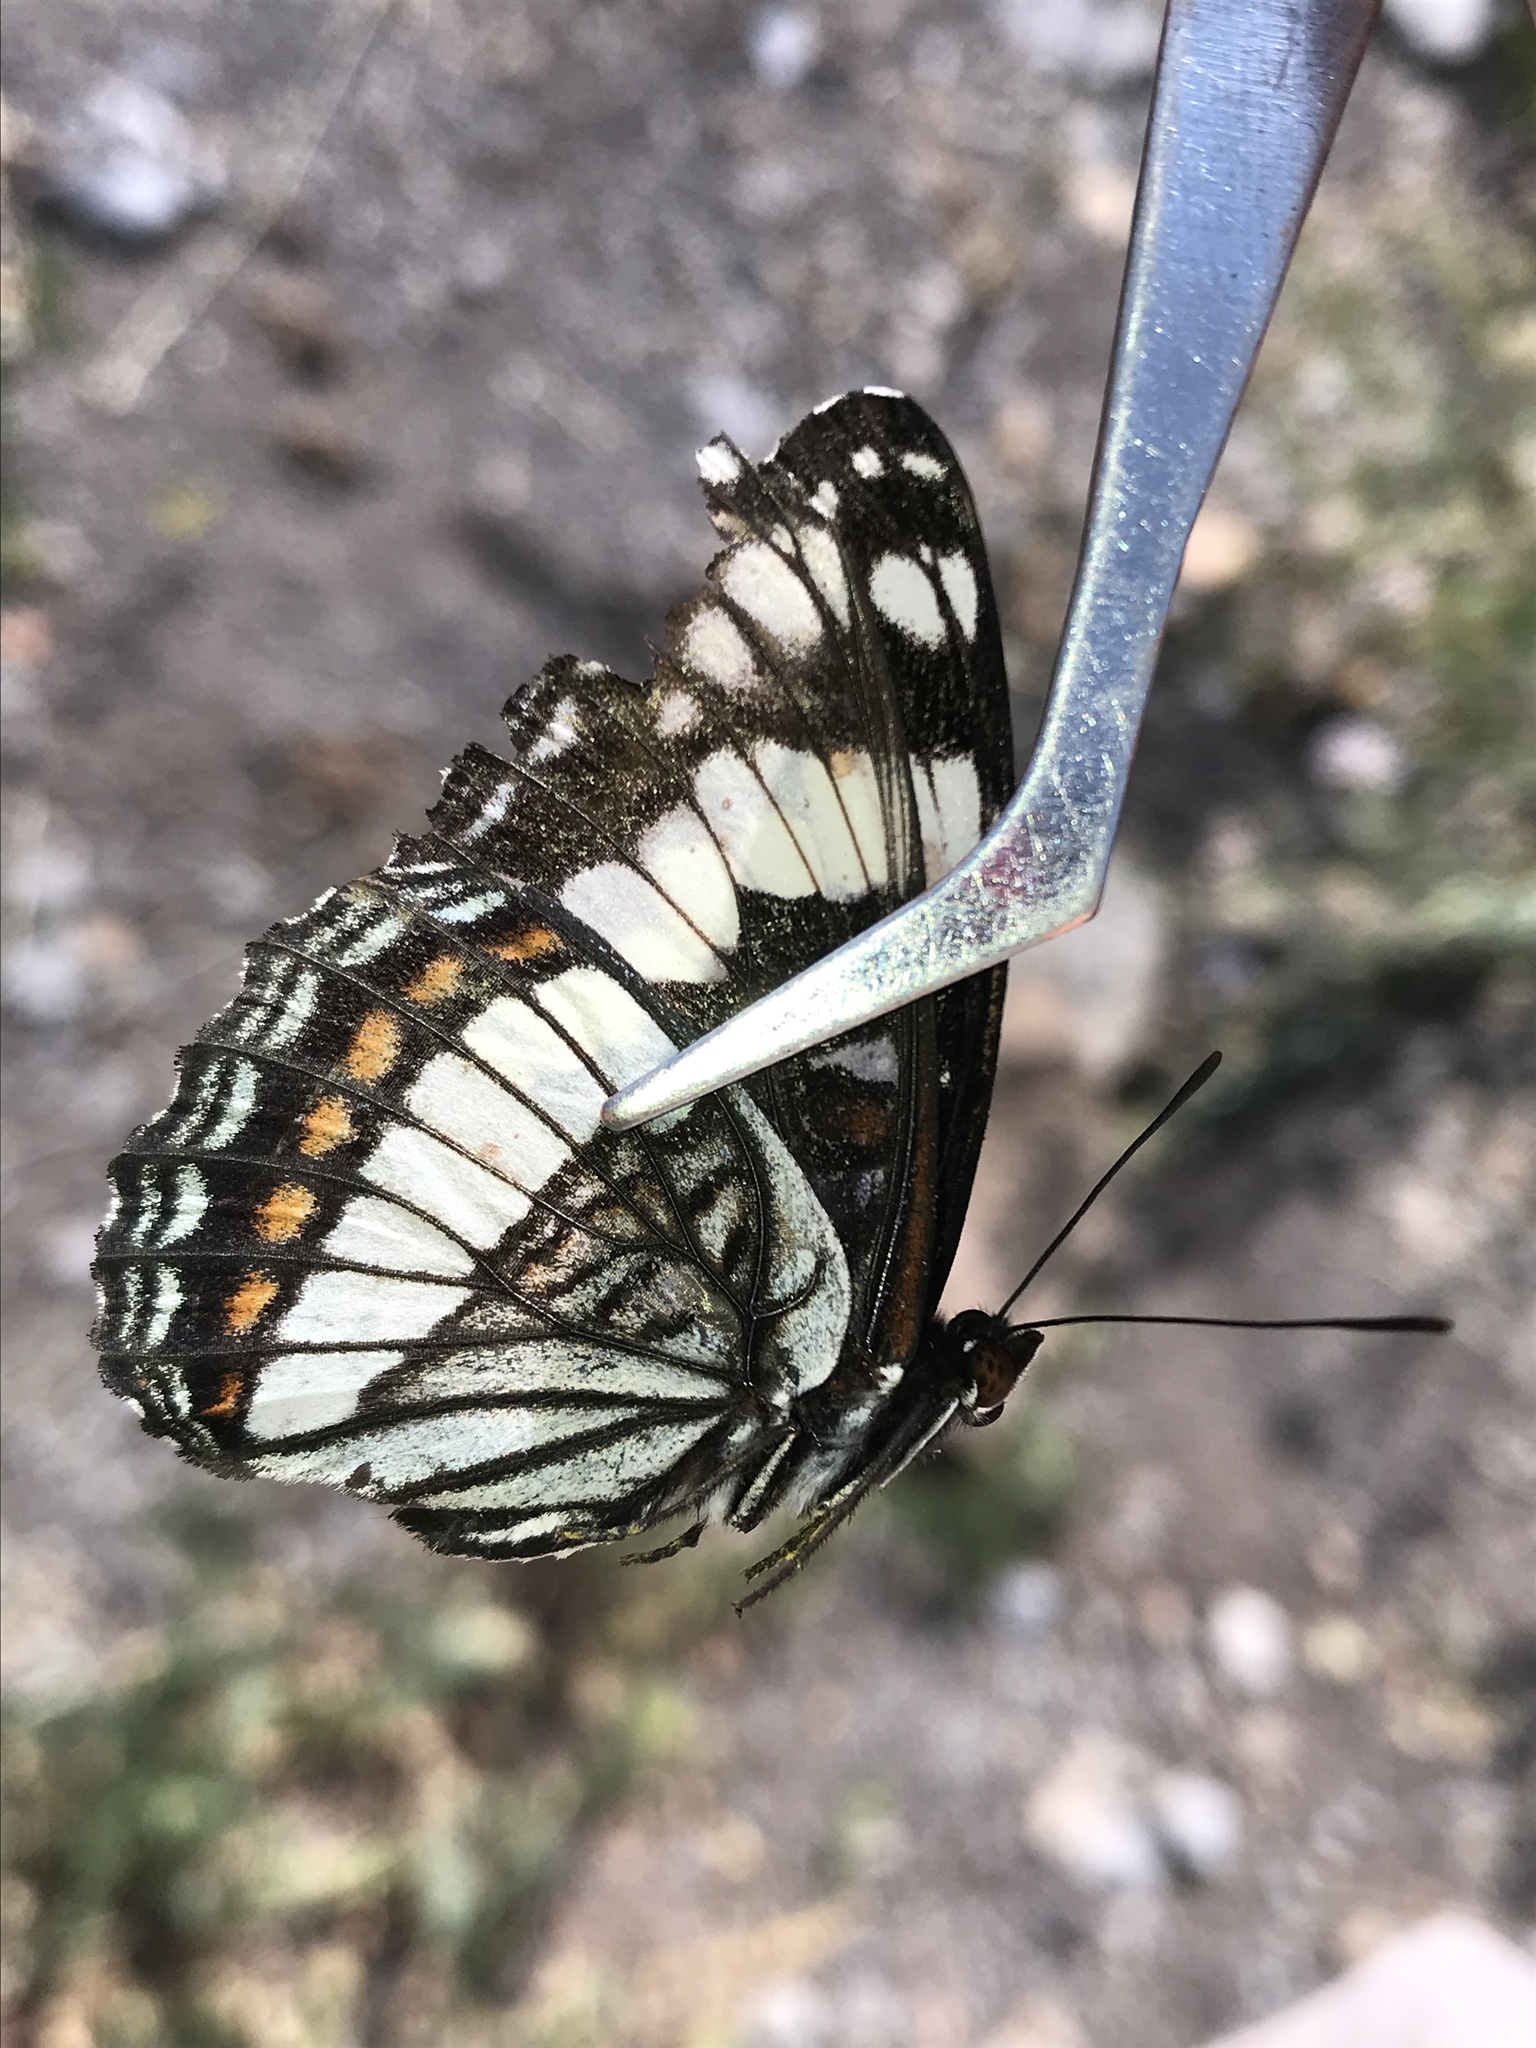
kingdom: Animalia
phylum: Arthropoda
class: Insecta
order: Lepidoptera
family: Nymphalidae
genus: Limenitis
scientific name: Limenitis weidemeyerii
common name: Weidemeyer's admiral
